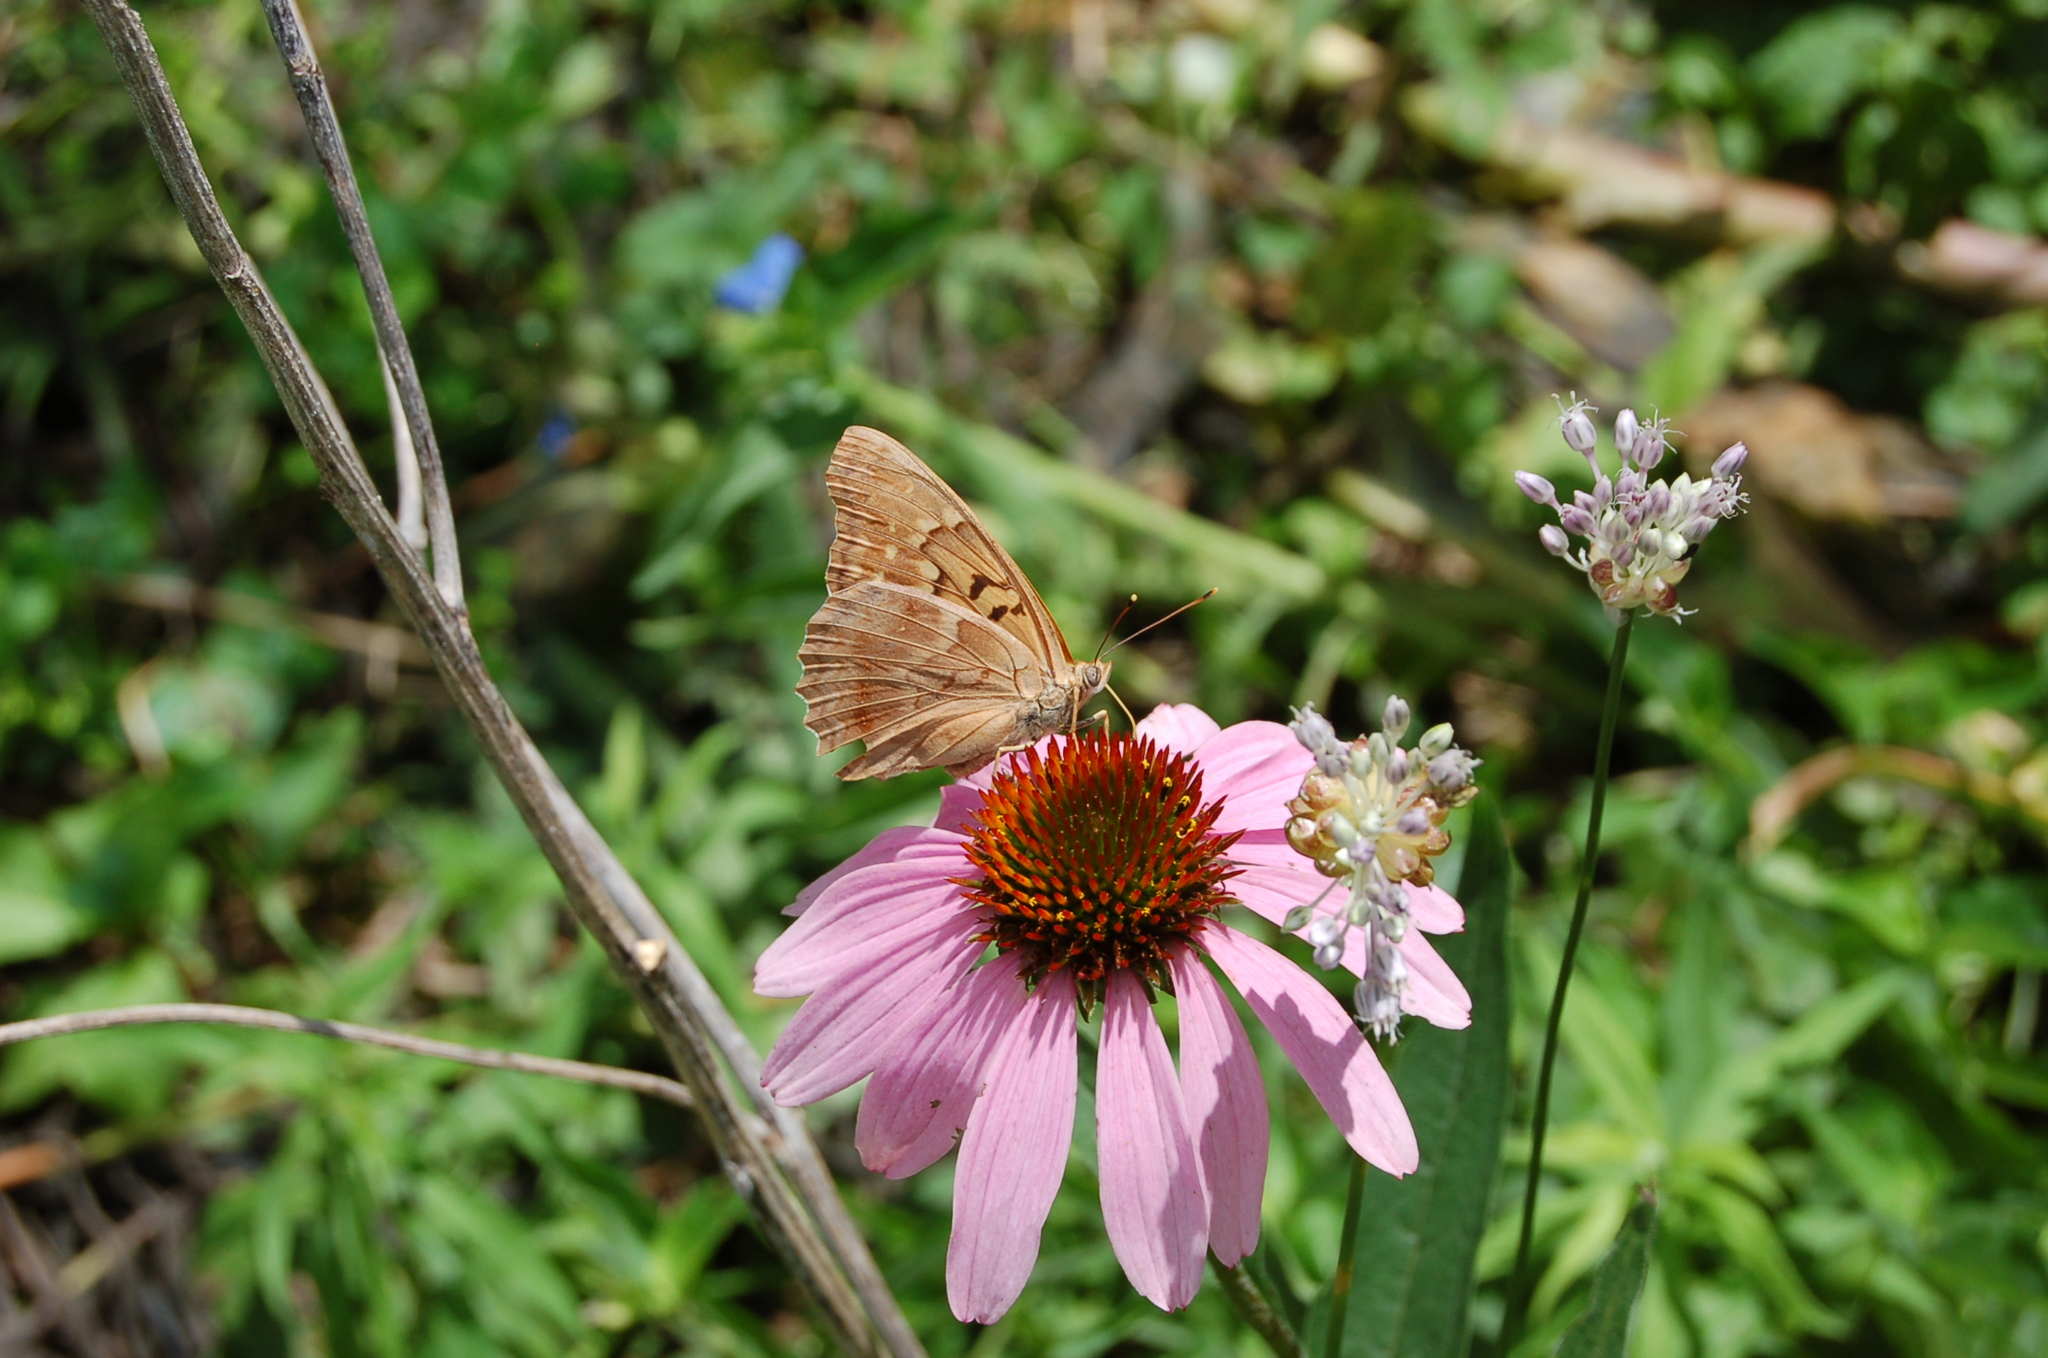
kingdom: Animalia
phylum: Arthropoda
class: Insecta
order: Lepidoptera
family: Nymphalidae
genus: Asterocampa
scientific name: Asterocampa clyton
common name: Tawny emperor
